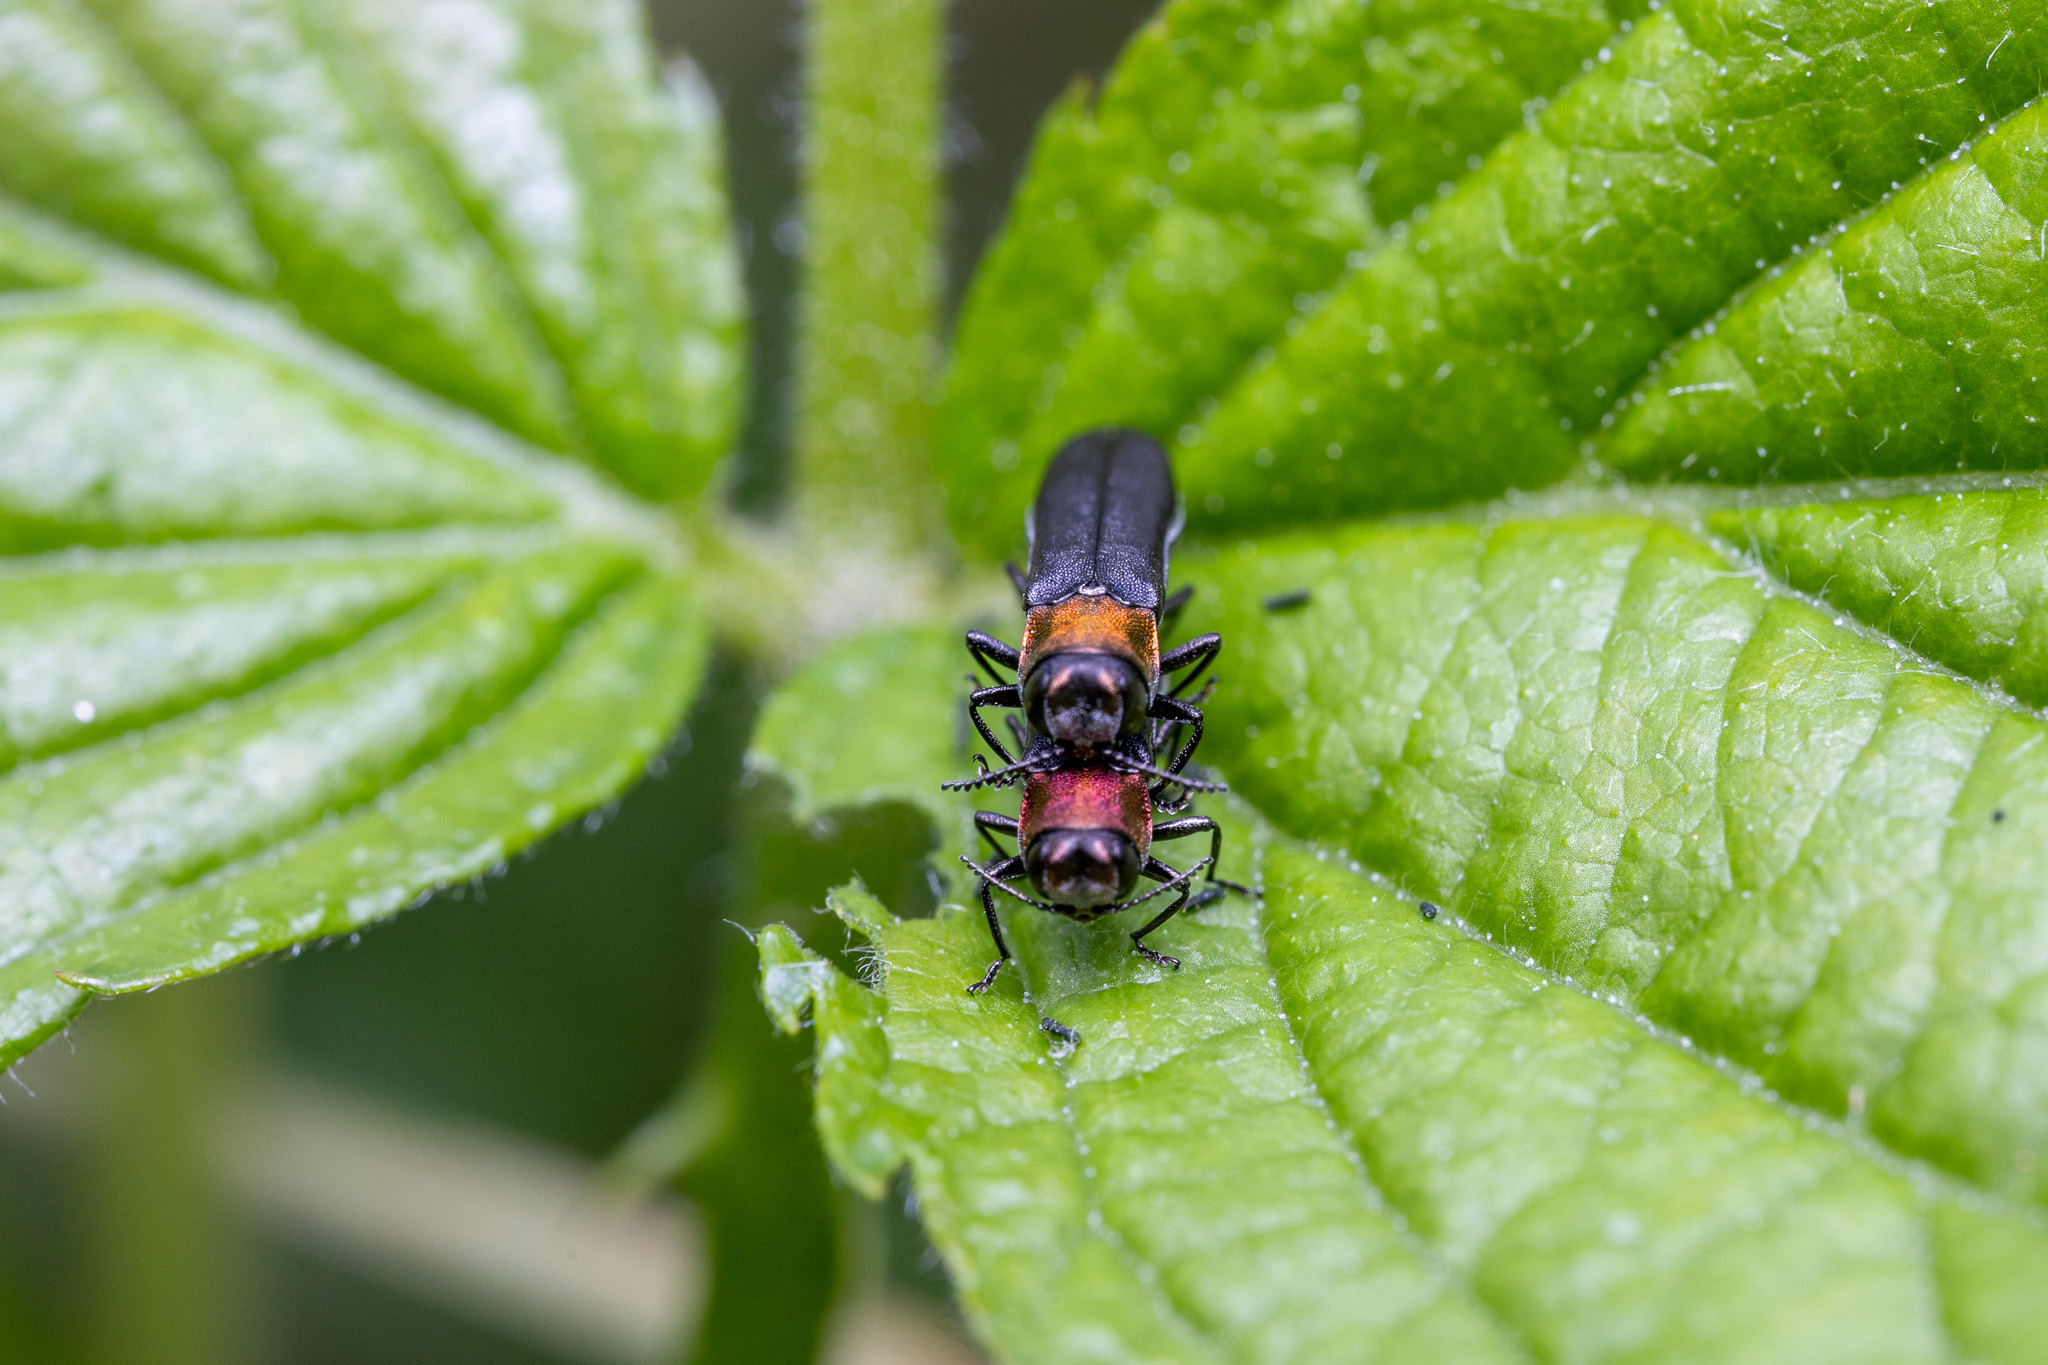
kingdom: Animalia
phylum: Arthropoda
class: Insecta
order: Coleoptera
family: Buprestidae
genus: Agrilus
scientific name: Agrilus ruficollis
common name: Red-necked cane borer beetle
